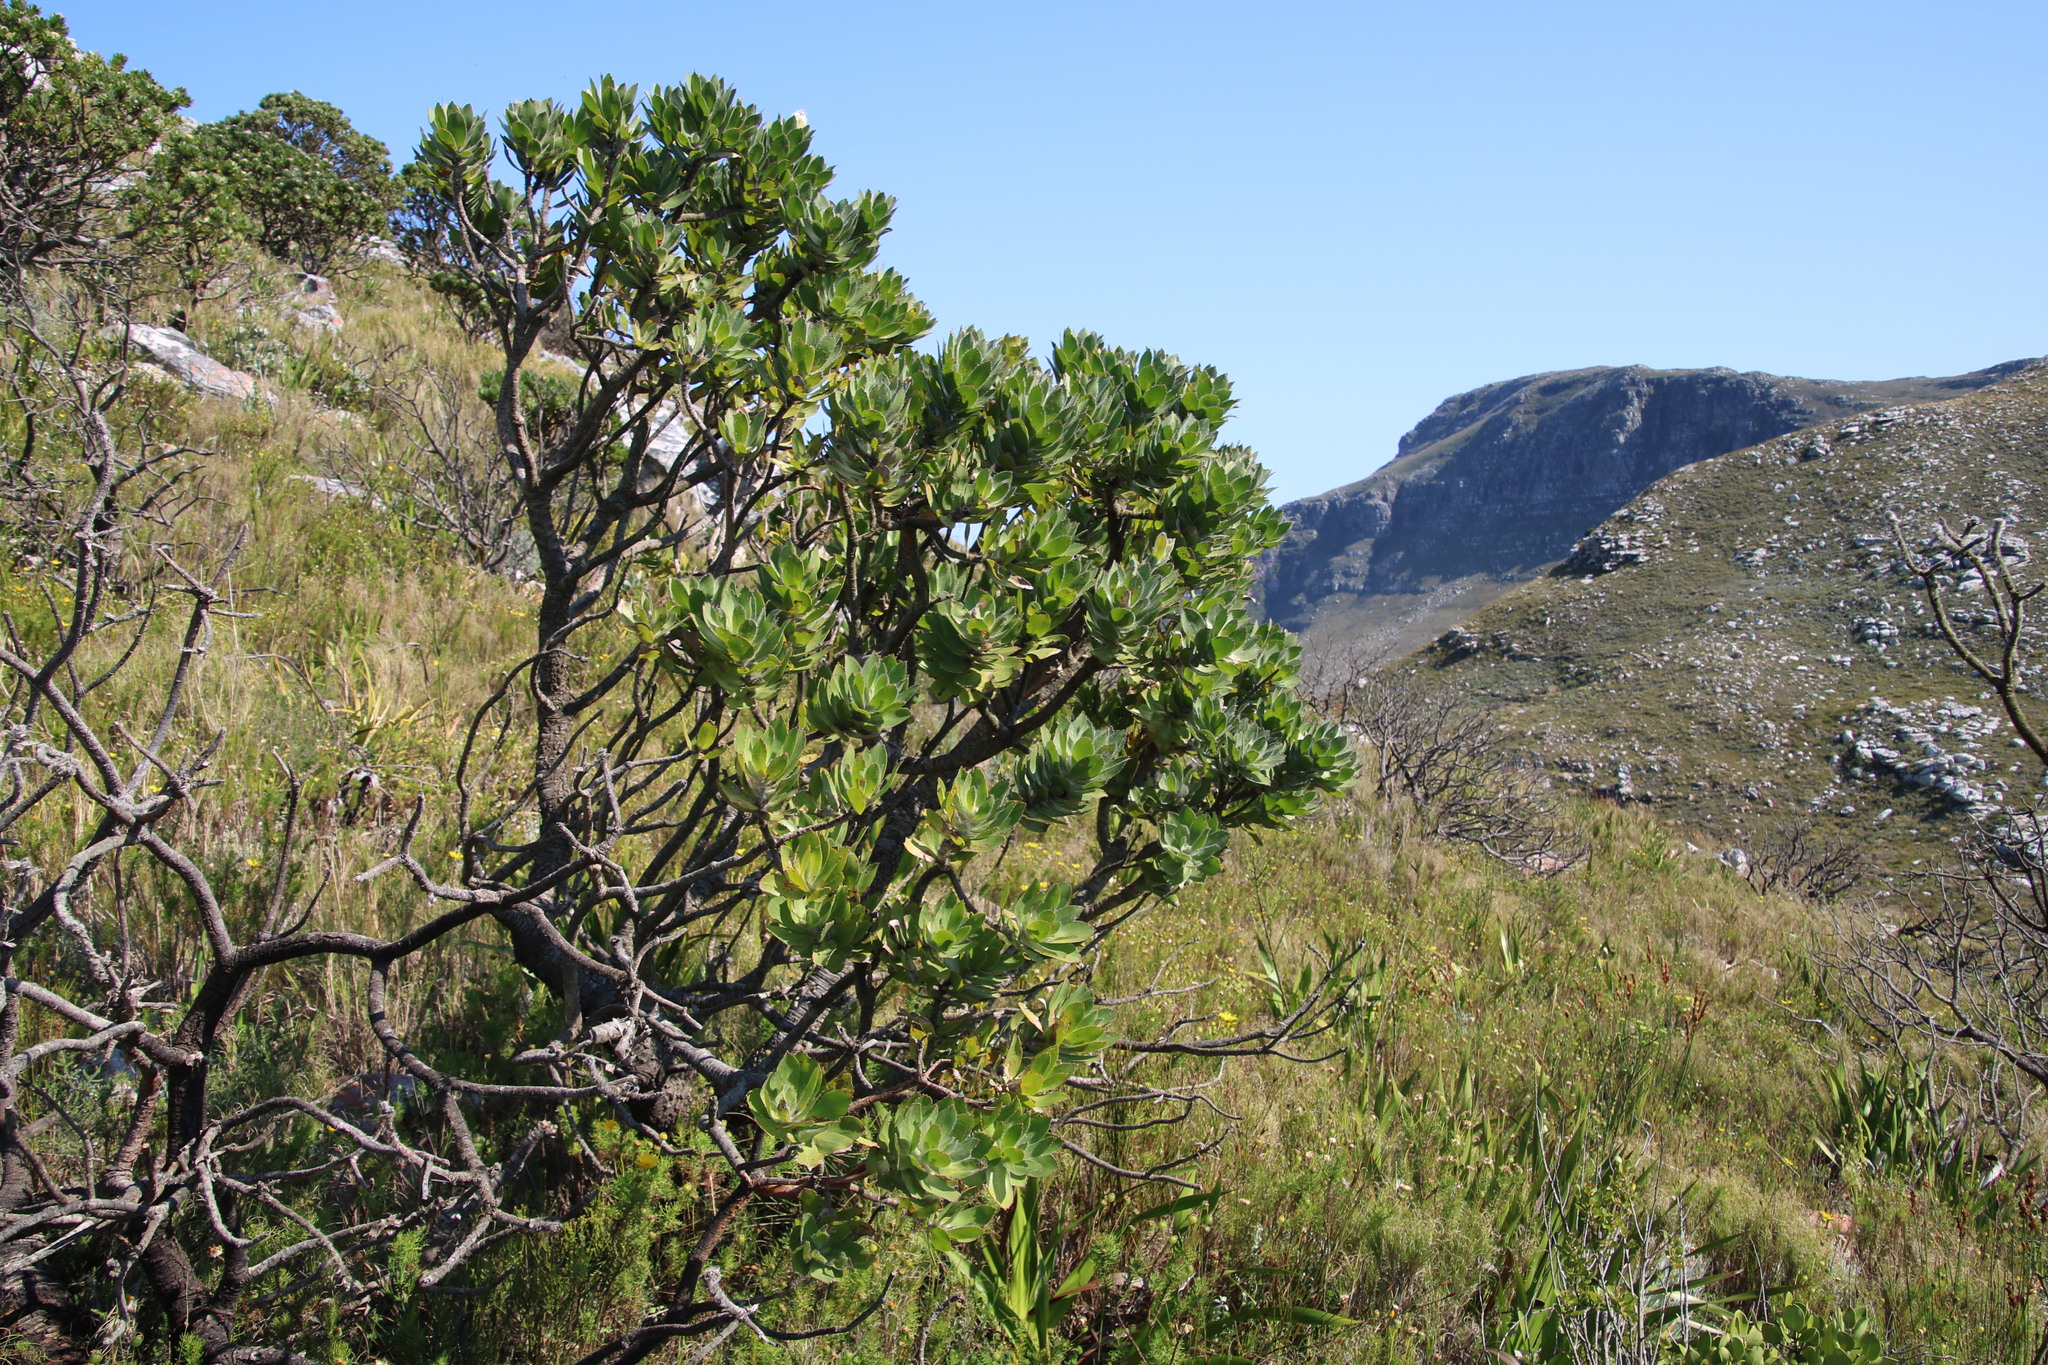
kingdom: Plantae
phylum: Tracheophyta
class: Magnoliopsida
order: Proteales
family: Proteaceae
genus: Leucospermum
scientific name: Leucospermum conocarpodendron
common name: Tree pincushion
